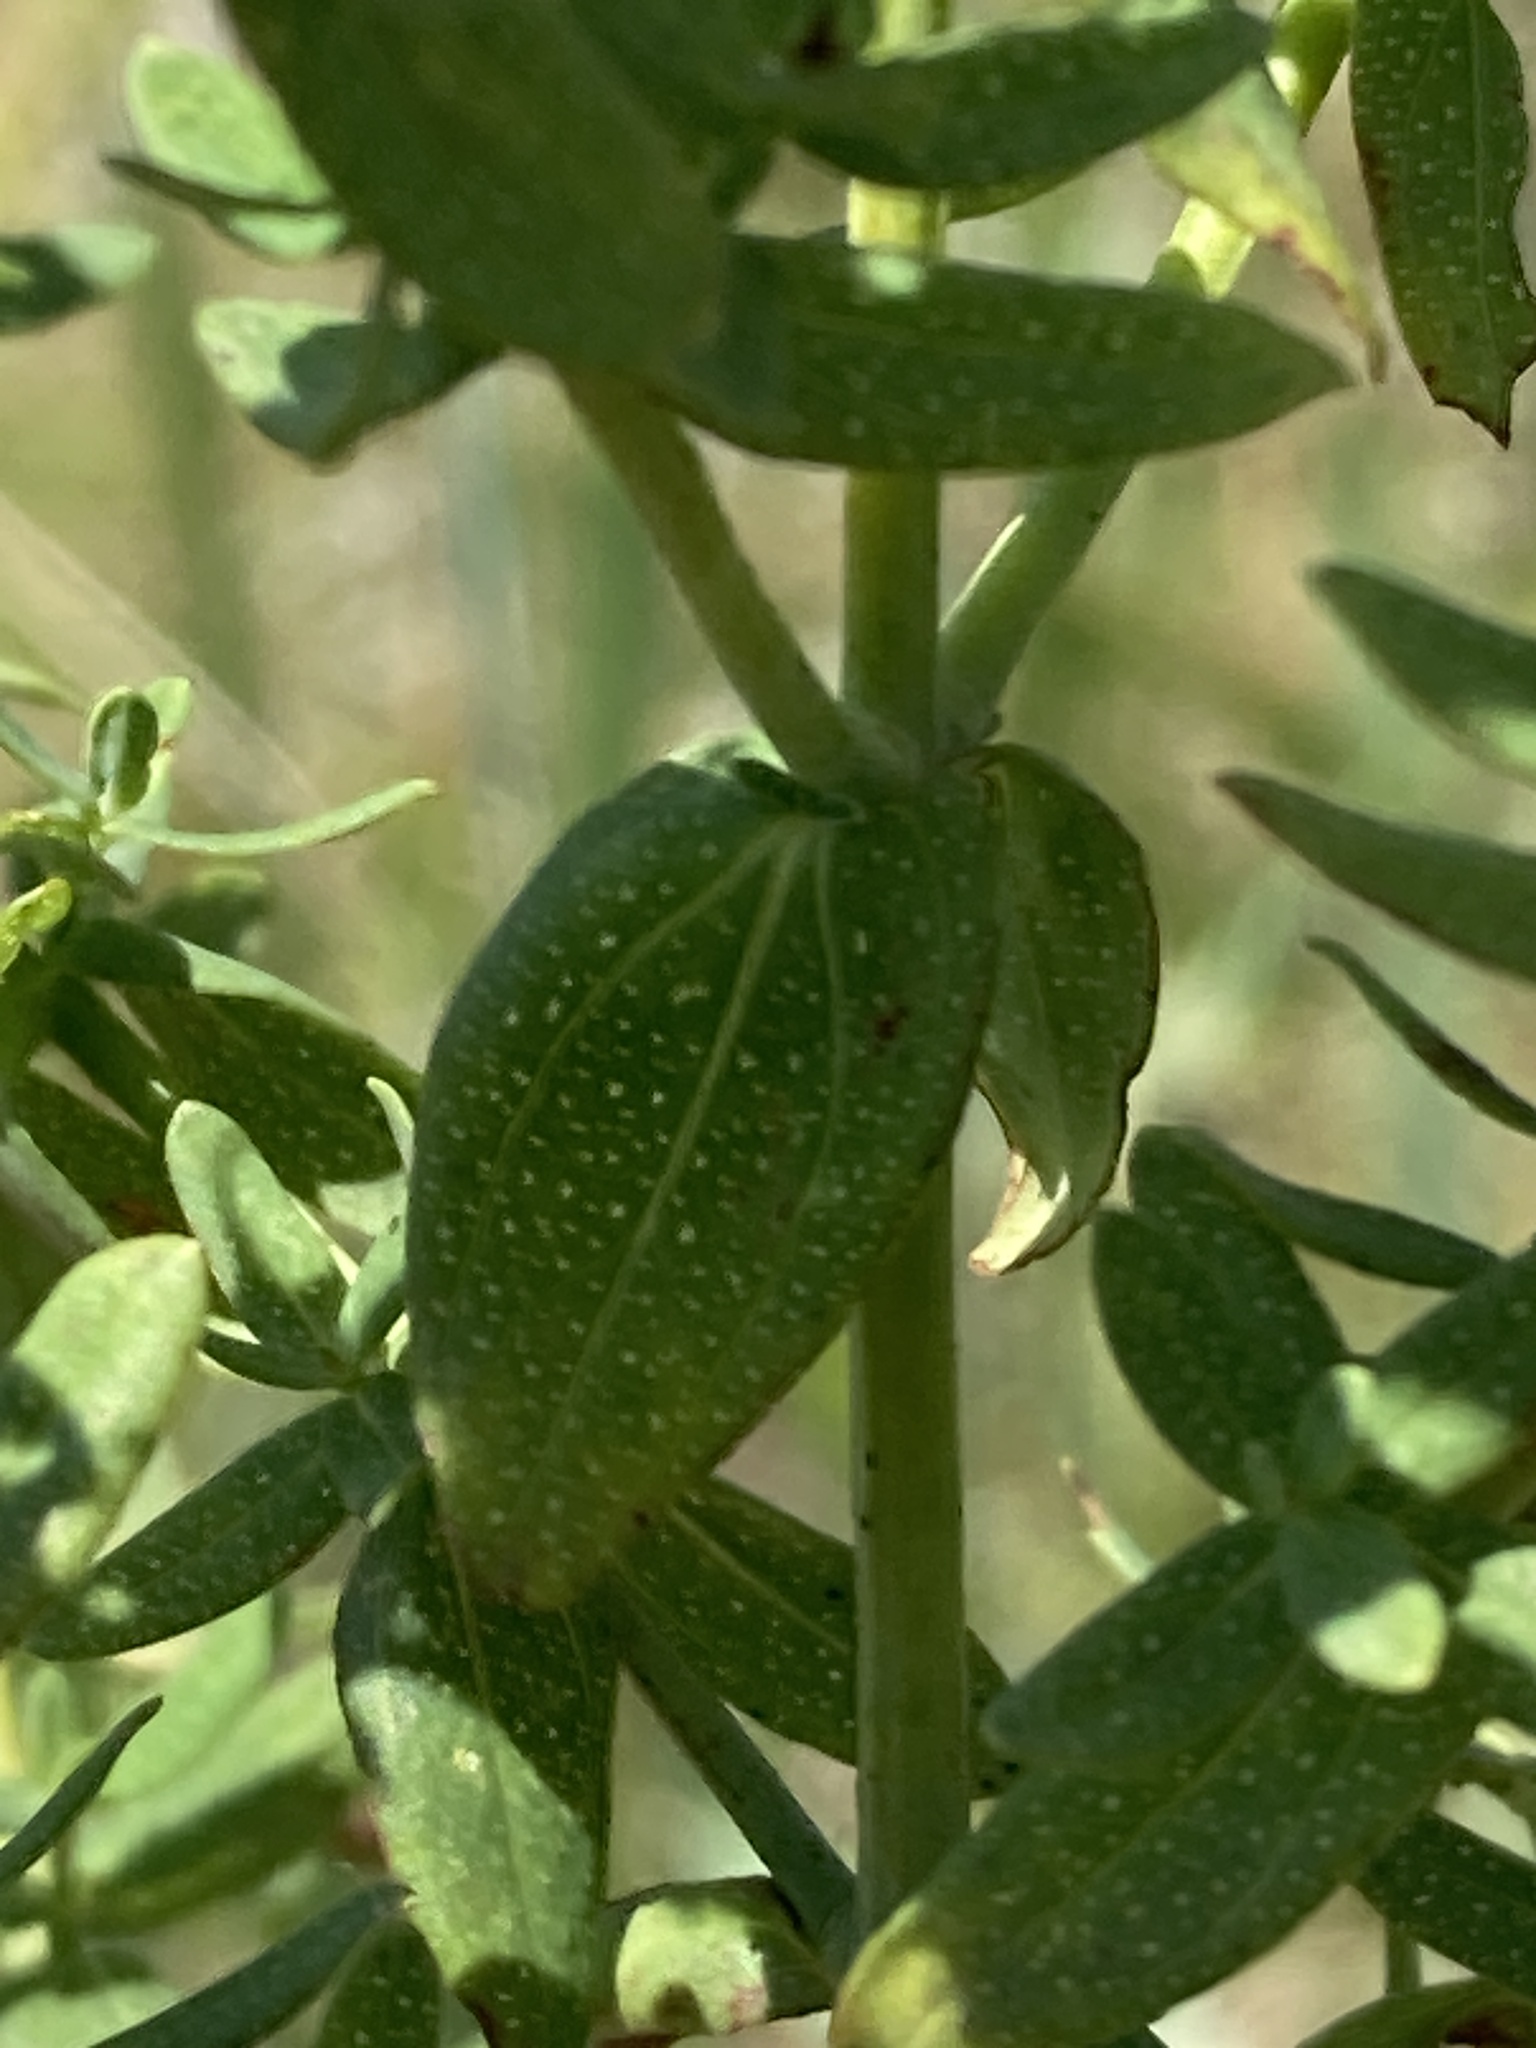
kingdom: Plantae
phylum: Tracheophyta
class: Magnoliopsida
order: Malpighiales
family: Hypericaceae
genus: Hypericum
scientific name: Hypericum perforatum
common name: Common st. johnswort
